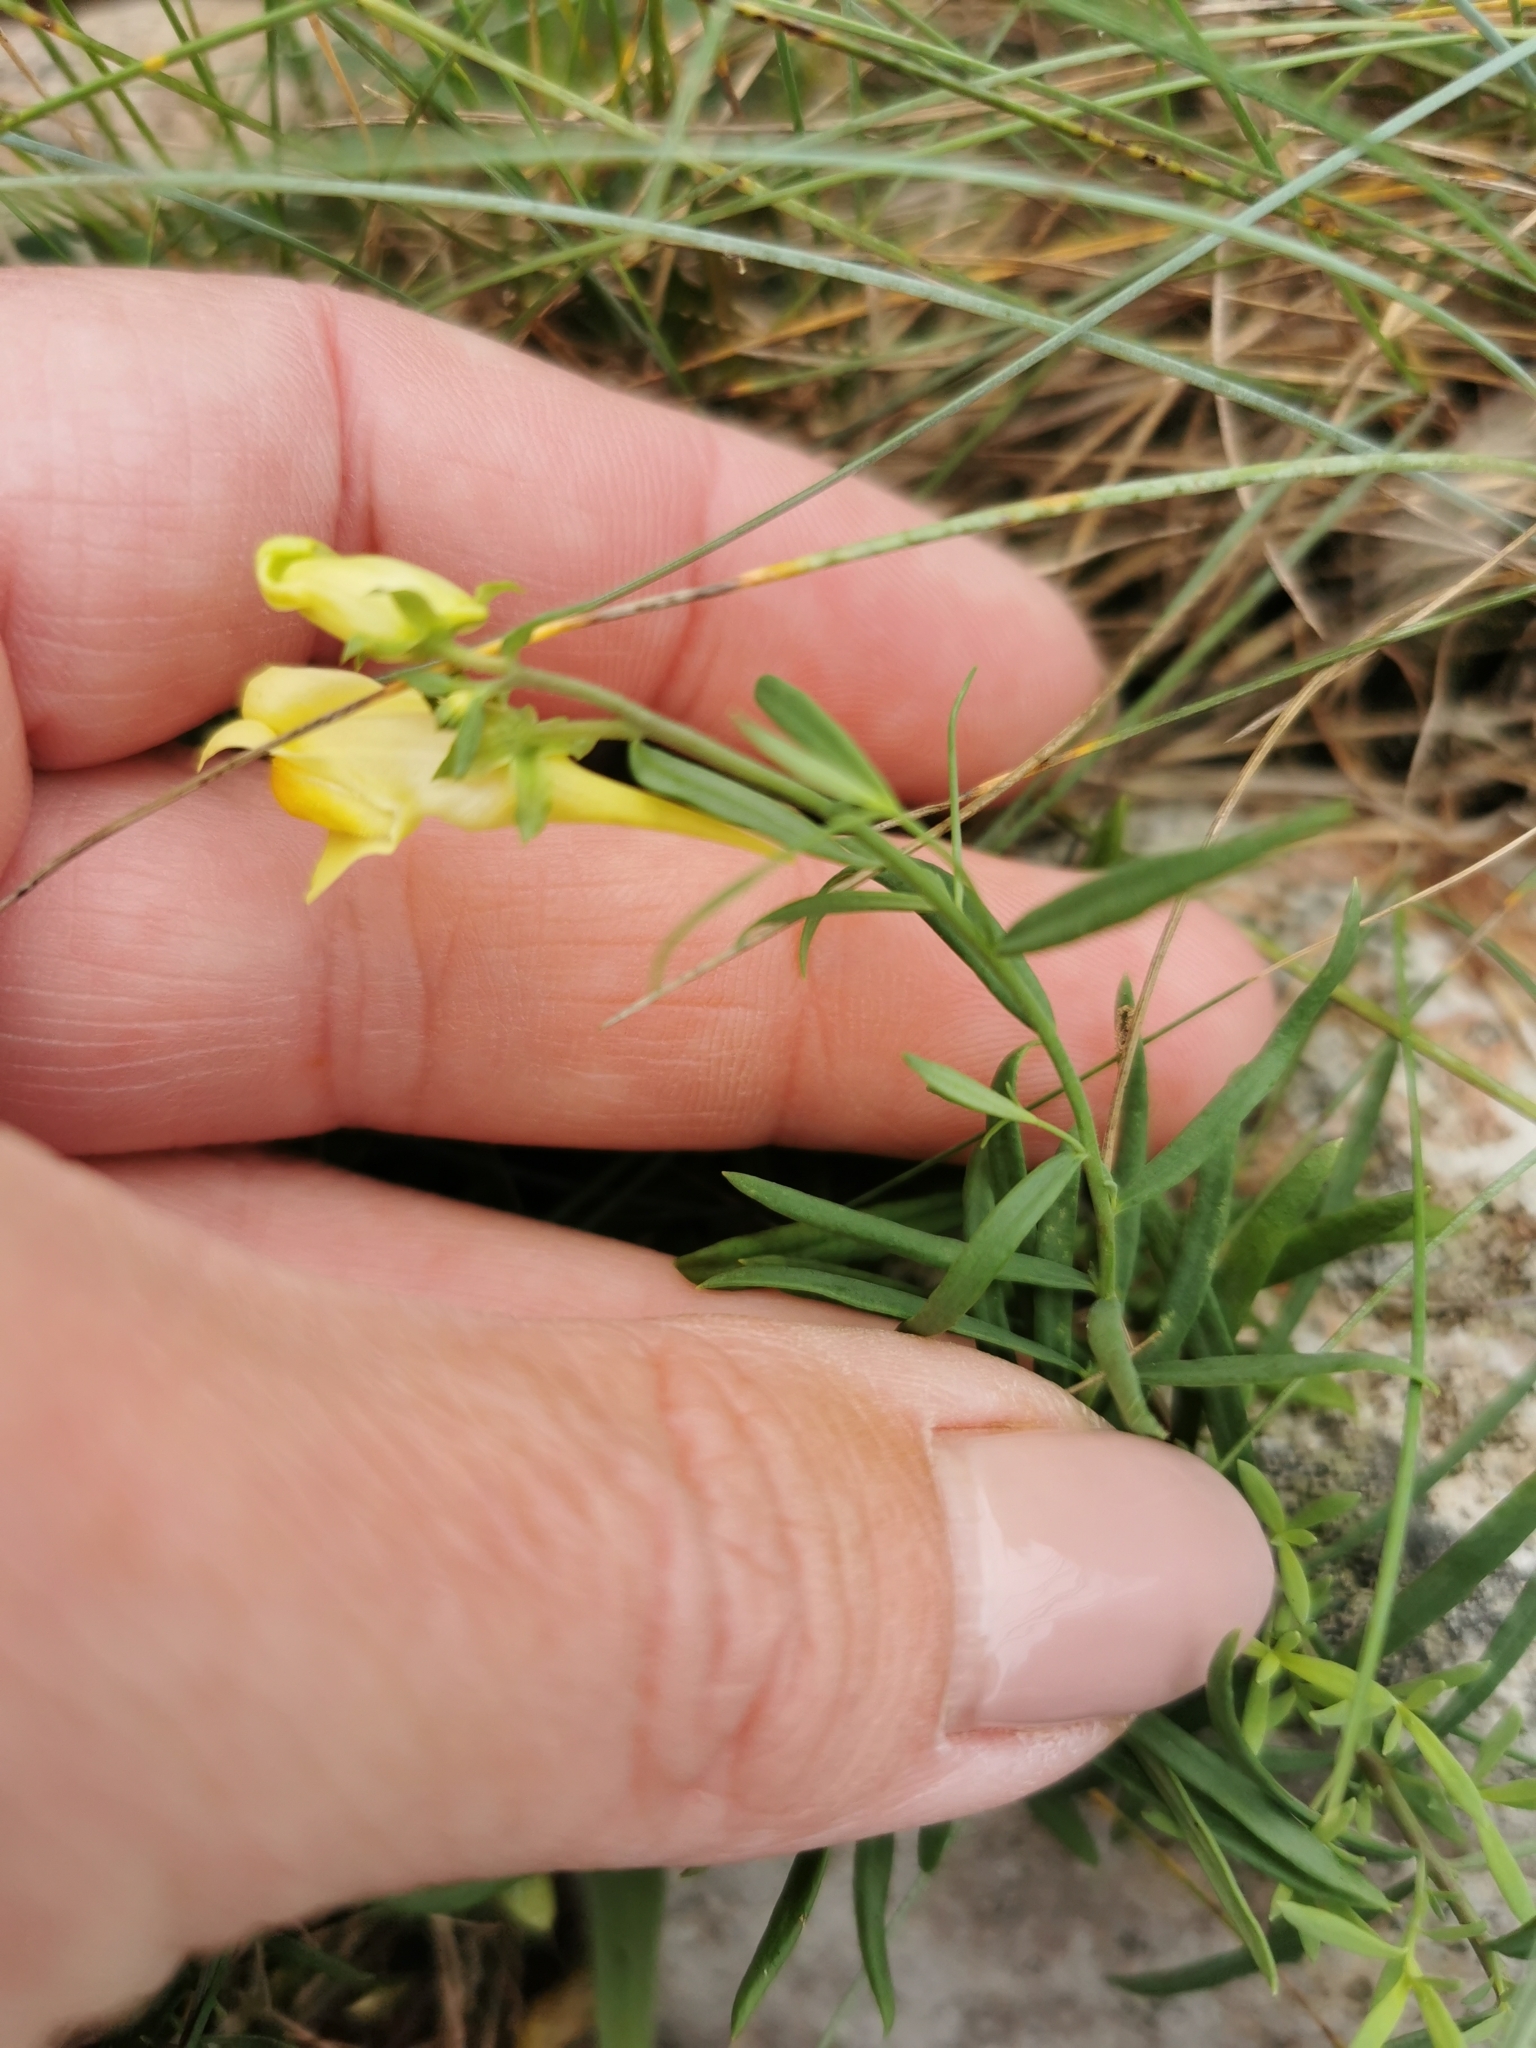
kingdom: Plantae
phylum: Tracheophyta
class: Magnoliopsida
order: Lamiales
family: Plantaginaceae
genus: Linaria
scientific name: Linaria vulgaris
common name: Butter and eggs
